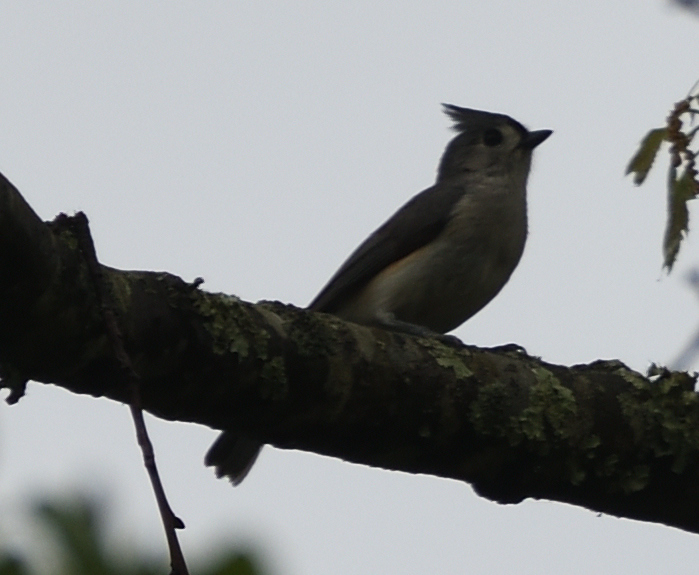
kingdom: Animalia
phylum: Chordata
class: Aves
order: Passeriformes
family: Paridae
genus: Baeolophus
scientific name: Baeolophus bicolor
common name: Tufted titmouse
